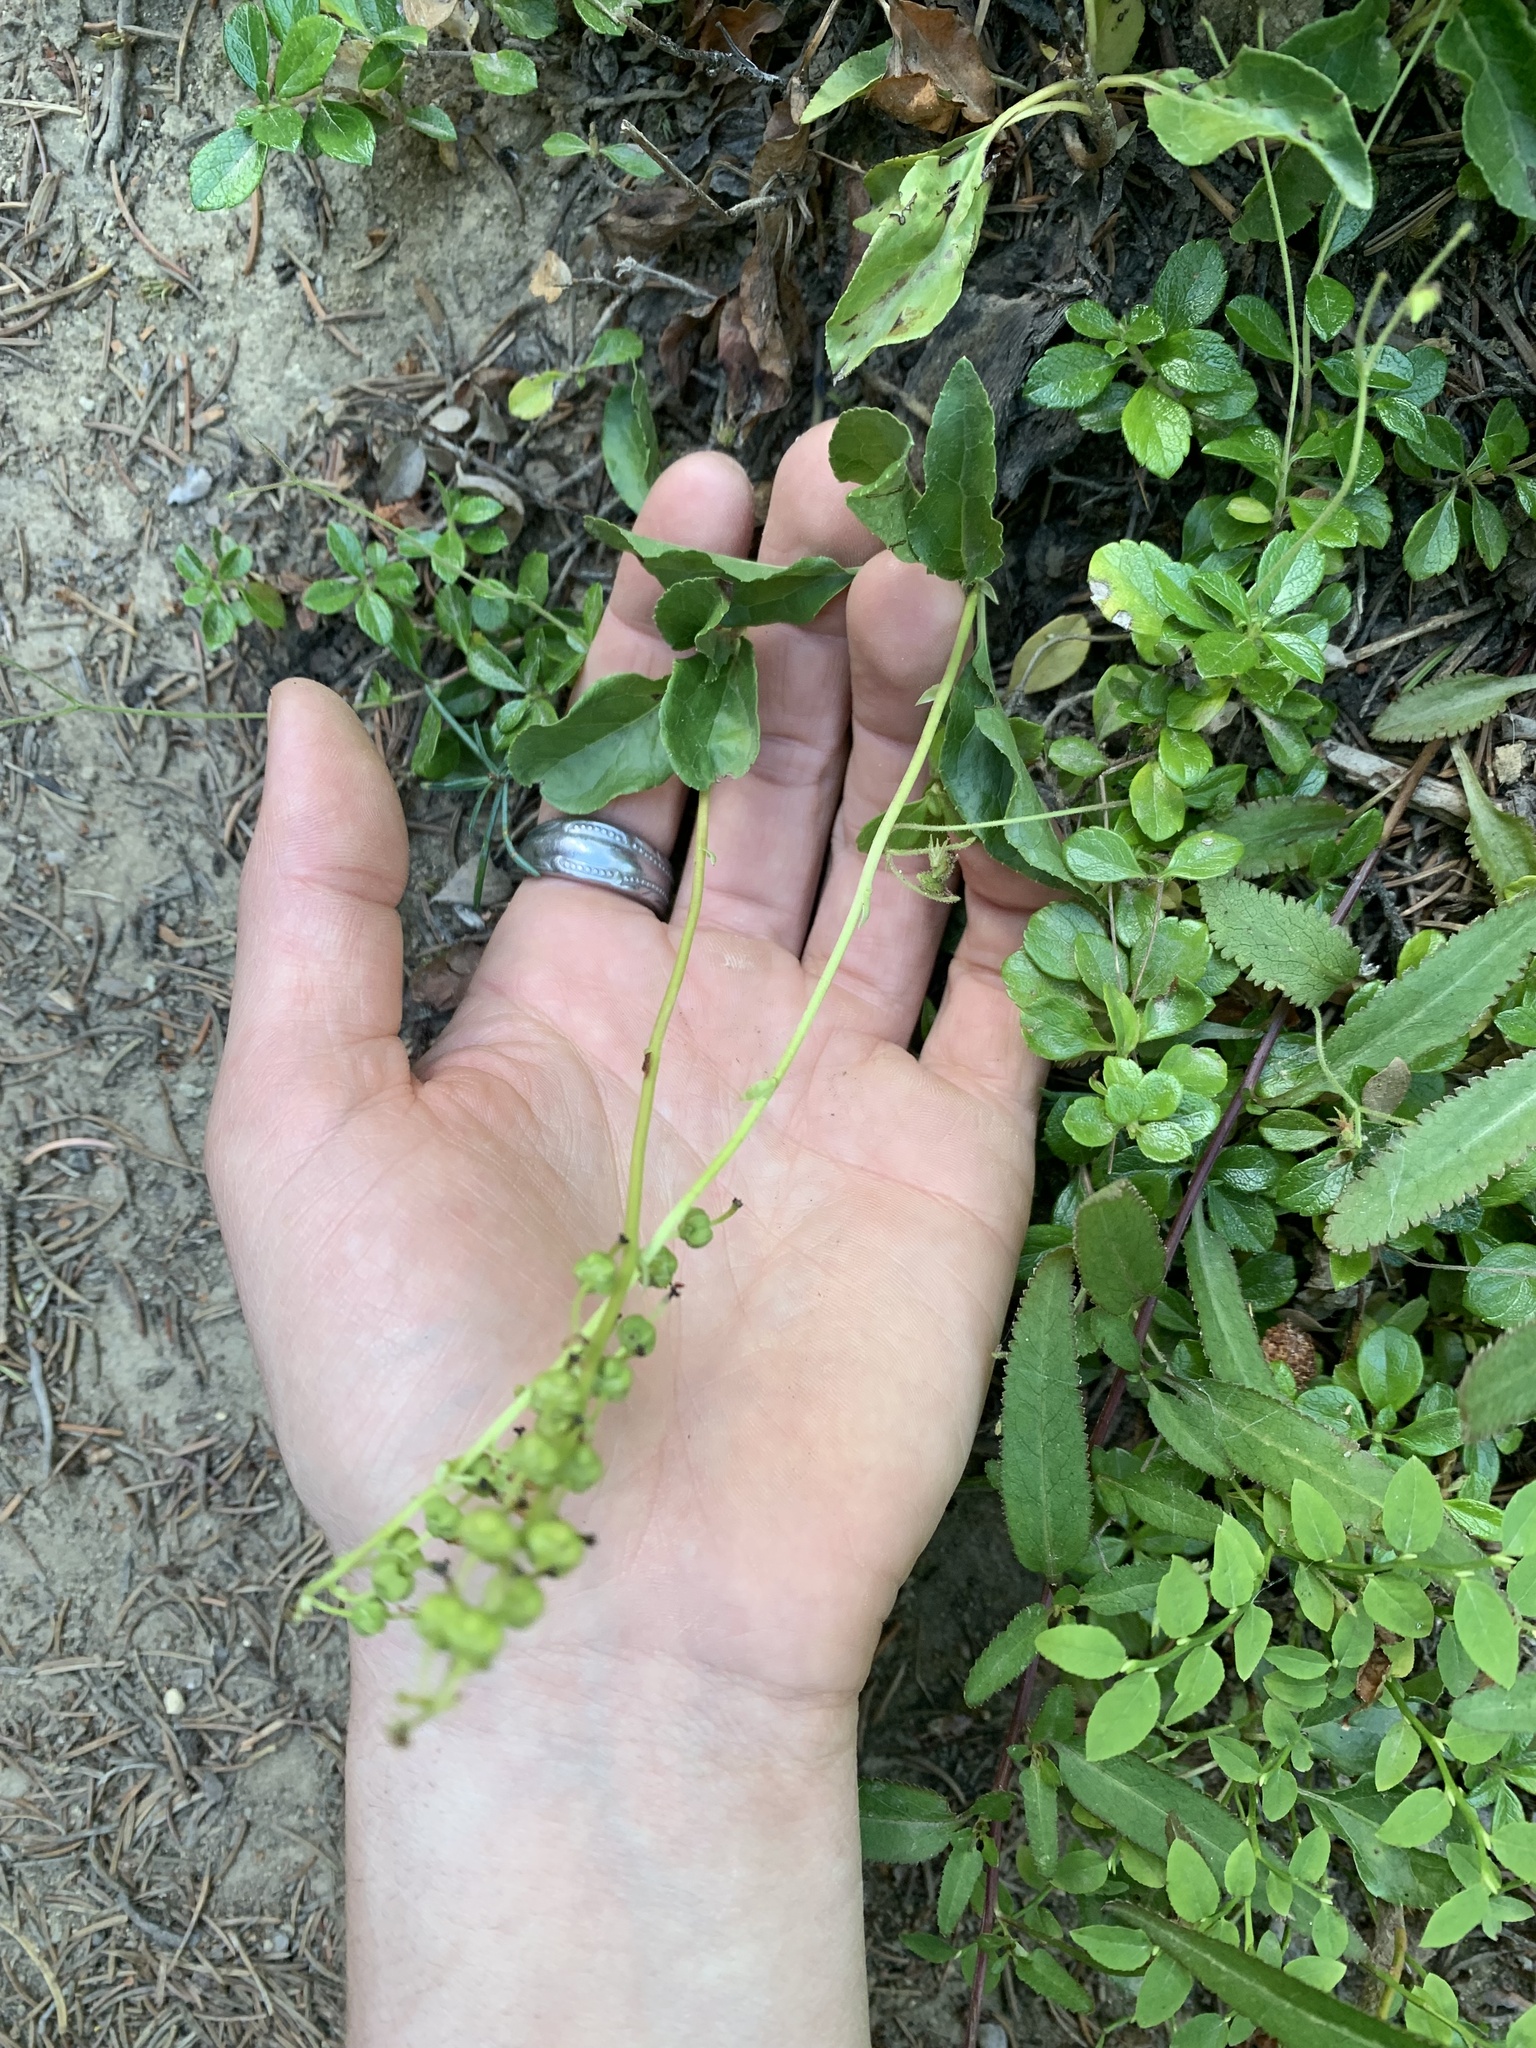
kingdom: Plantae
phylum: Tracheophyta
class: Magnoliopsida
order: Ericales
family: Ericaceae
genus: Orthilia
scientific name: Orthilia secunda
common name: One-sided orthilia
